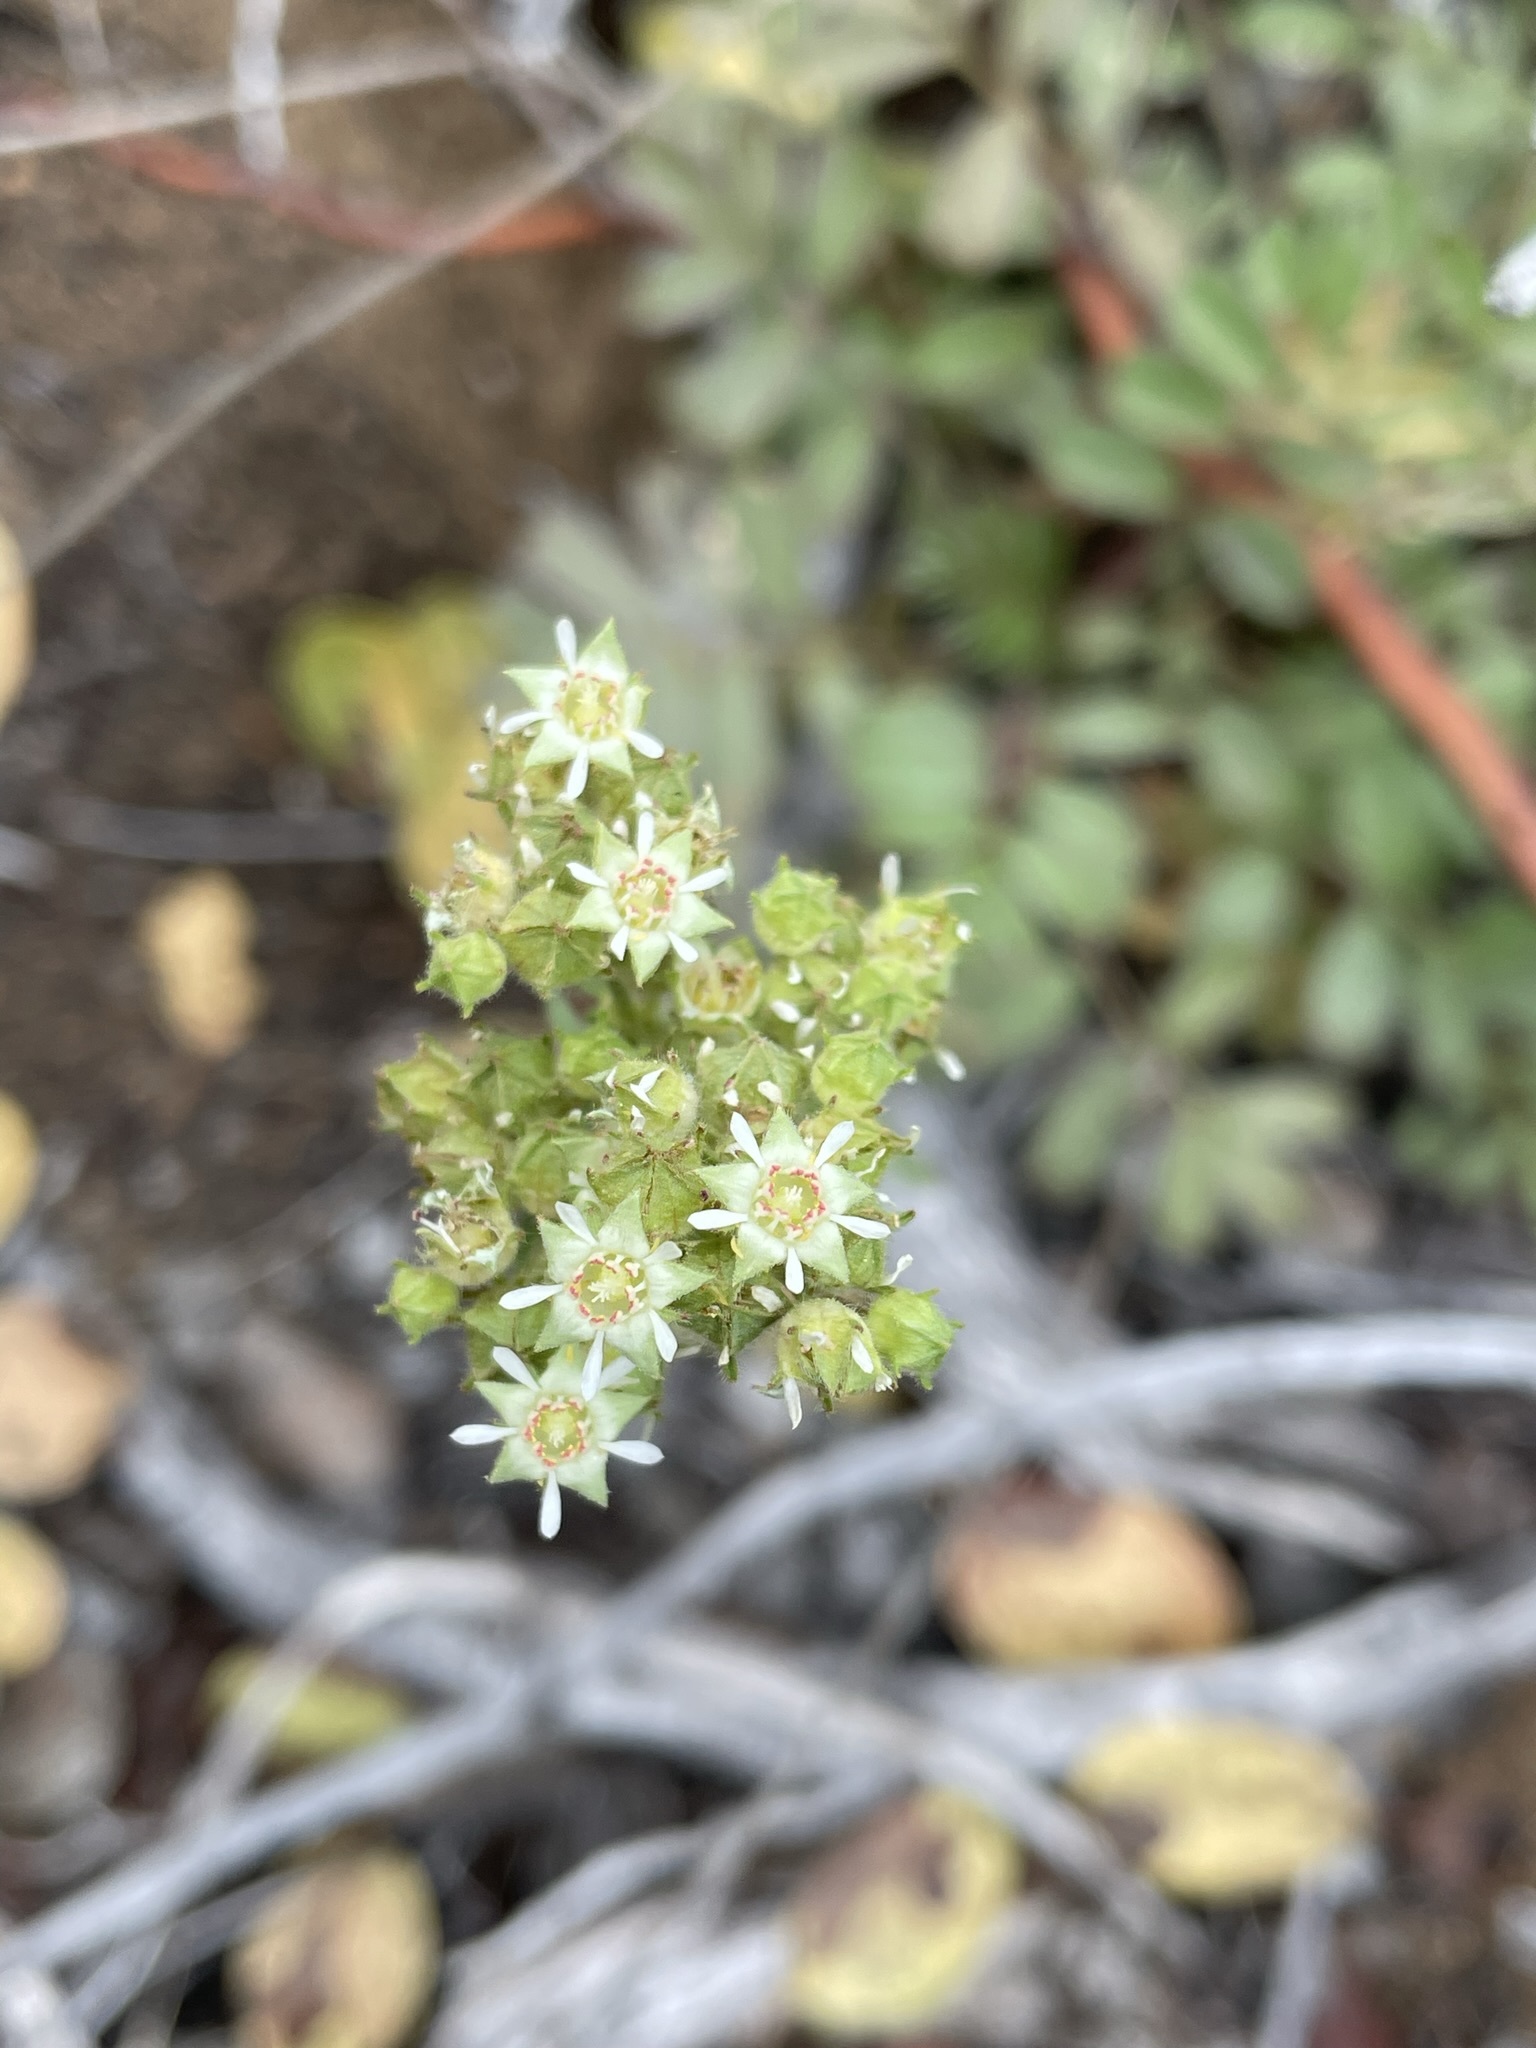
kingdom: Plantae
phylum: Tracheophyta
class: Magnoliopsida
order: Rosales
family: Rosaceae
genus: Potentilla
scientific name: Potentilla tilingii
